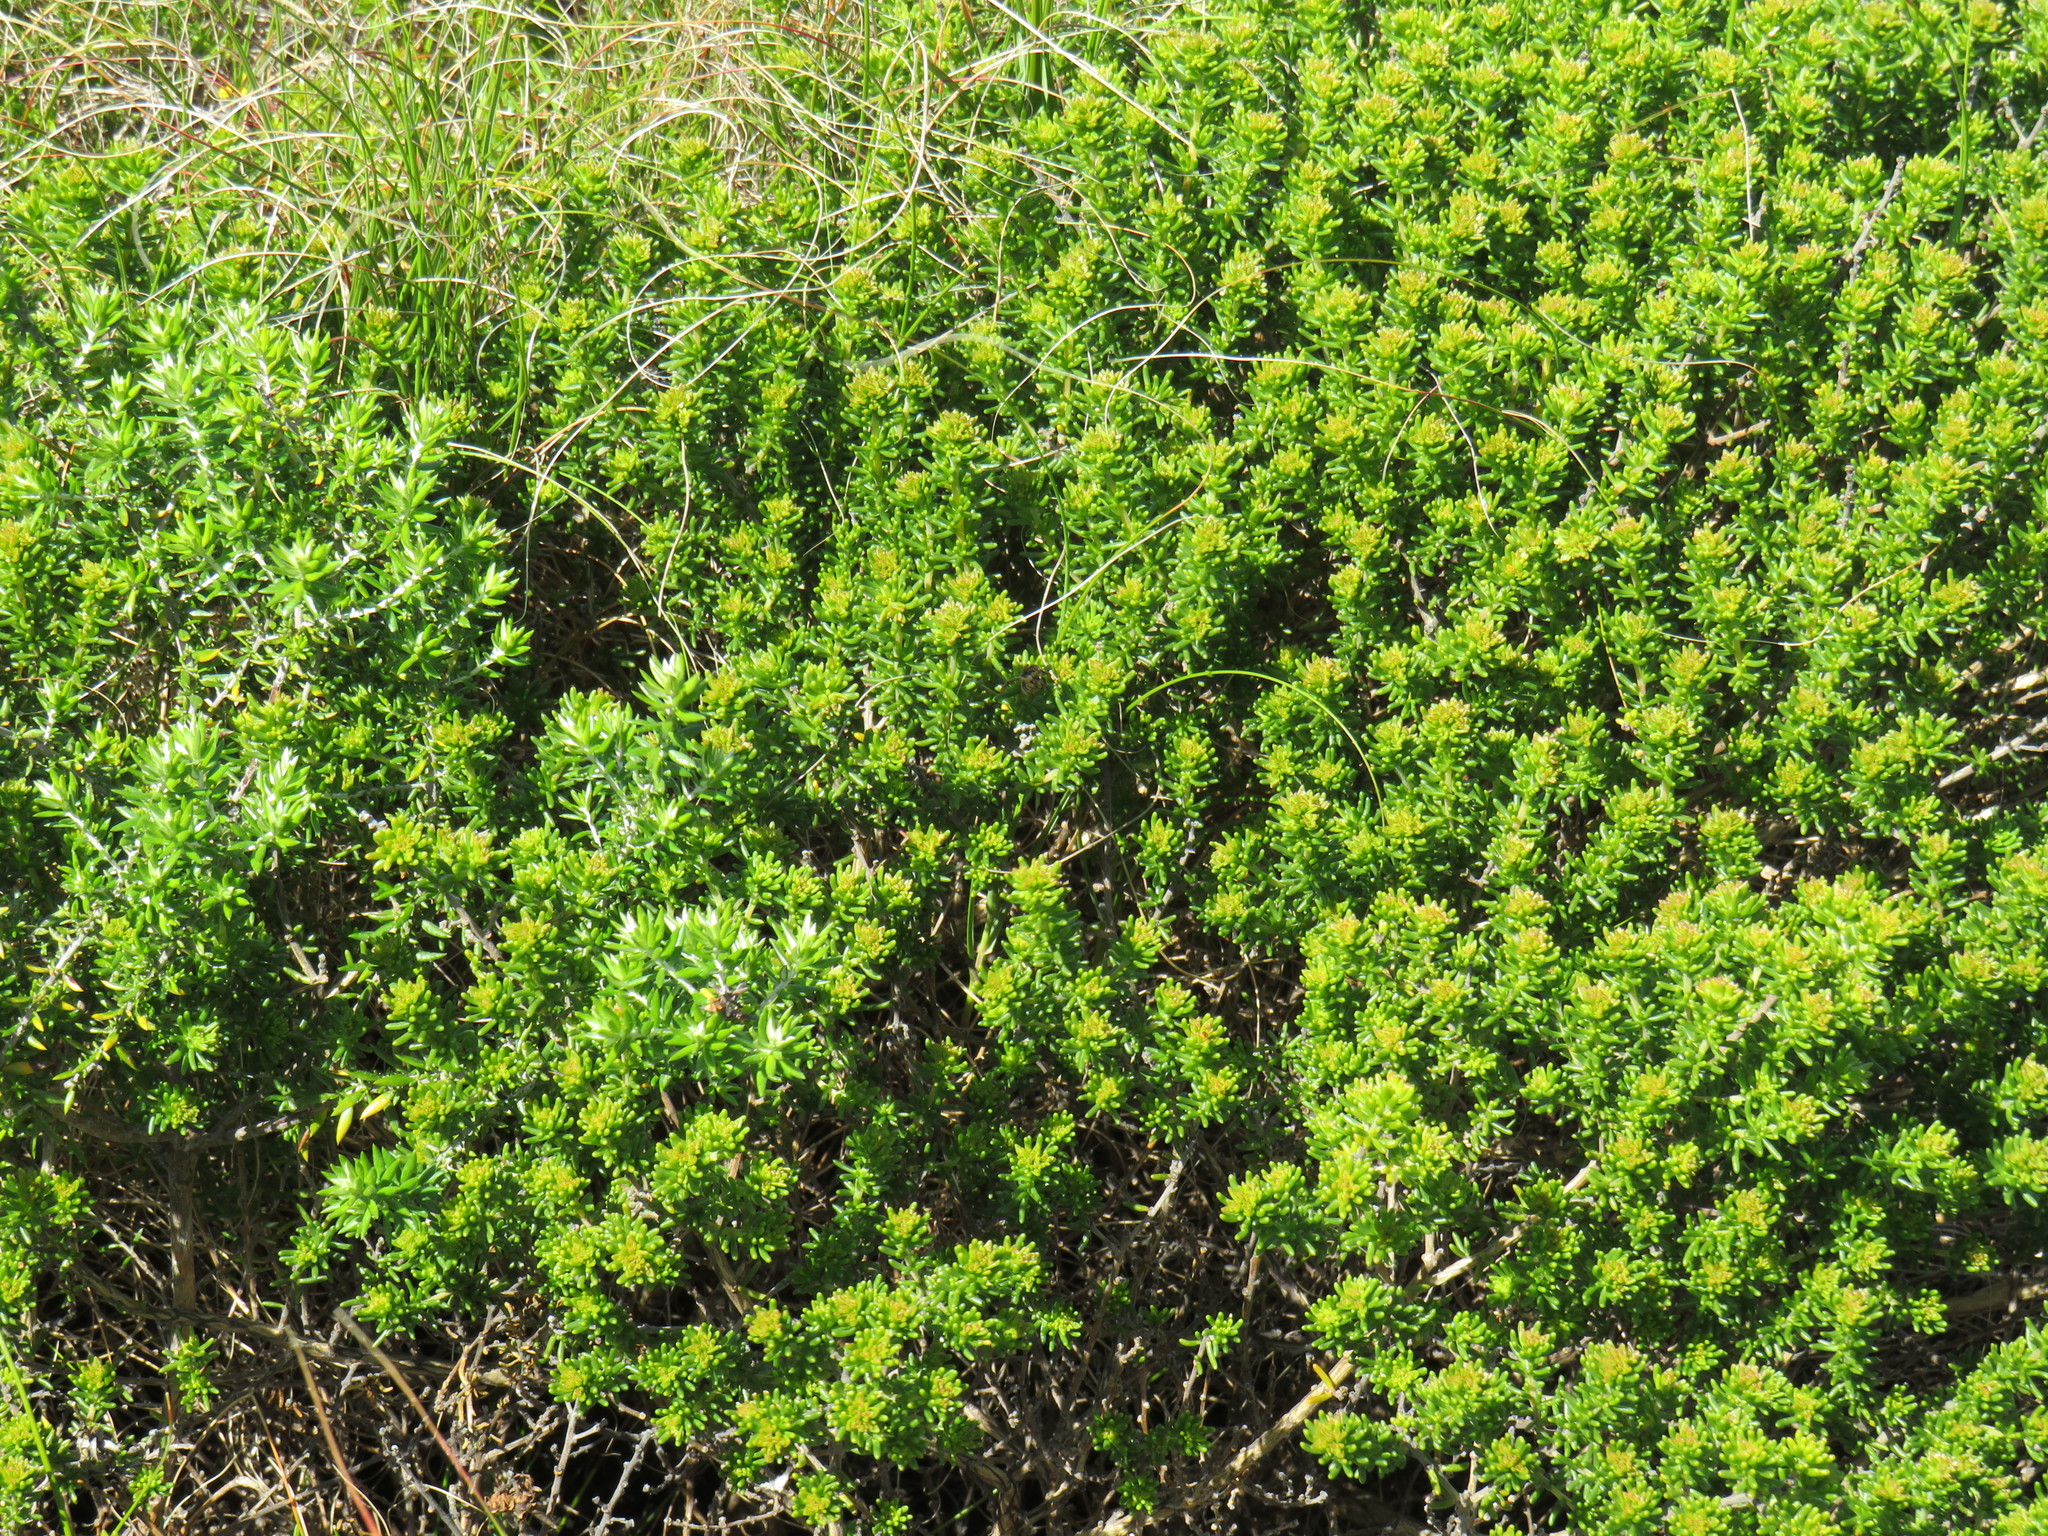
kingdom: Plantae
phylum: Tracheophyta
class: Magnoliopsida
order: Fabales
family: Fabaceae
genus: Aspalathus
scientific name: Aspalathus carnosa
